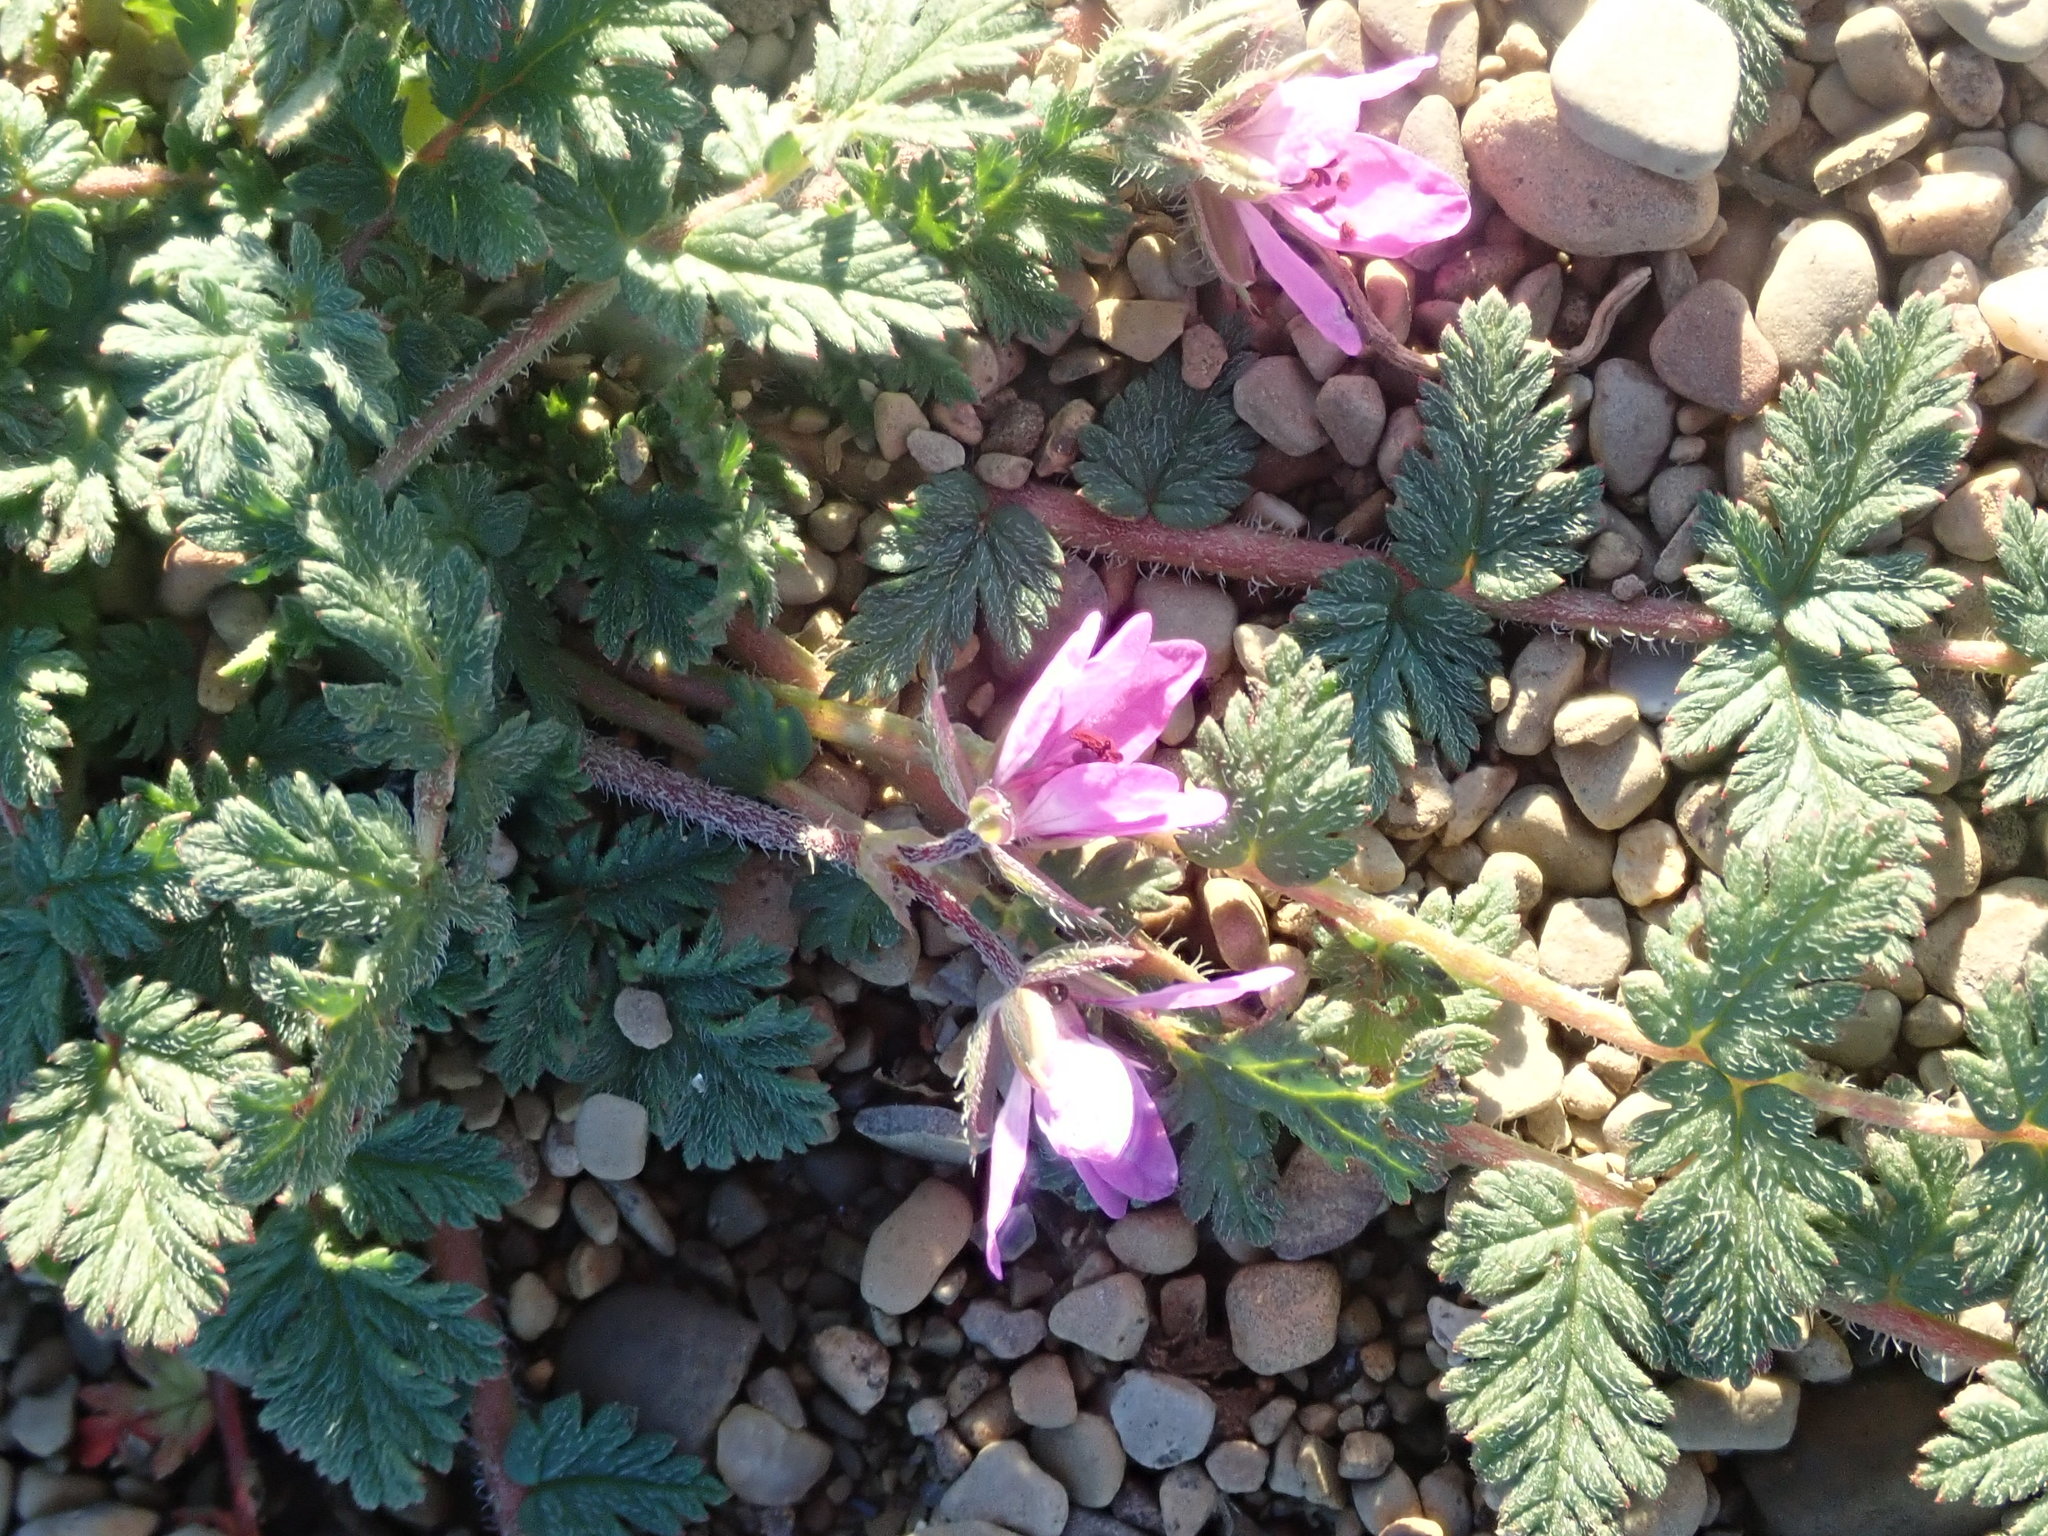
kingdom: Plantae
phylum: Tracheophyta
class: Magnoliopsida
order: Geraniales
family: Geraniaceae
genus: Erodium
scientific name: Erodium cicutarium
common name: Common stork's-bill
